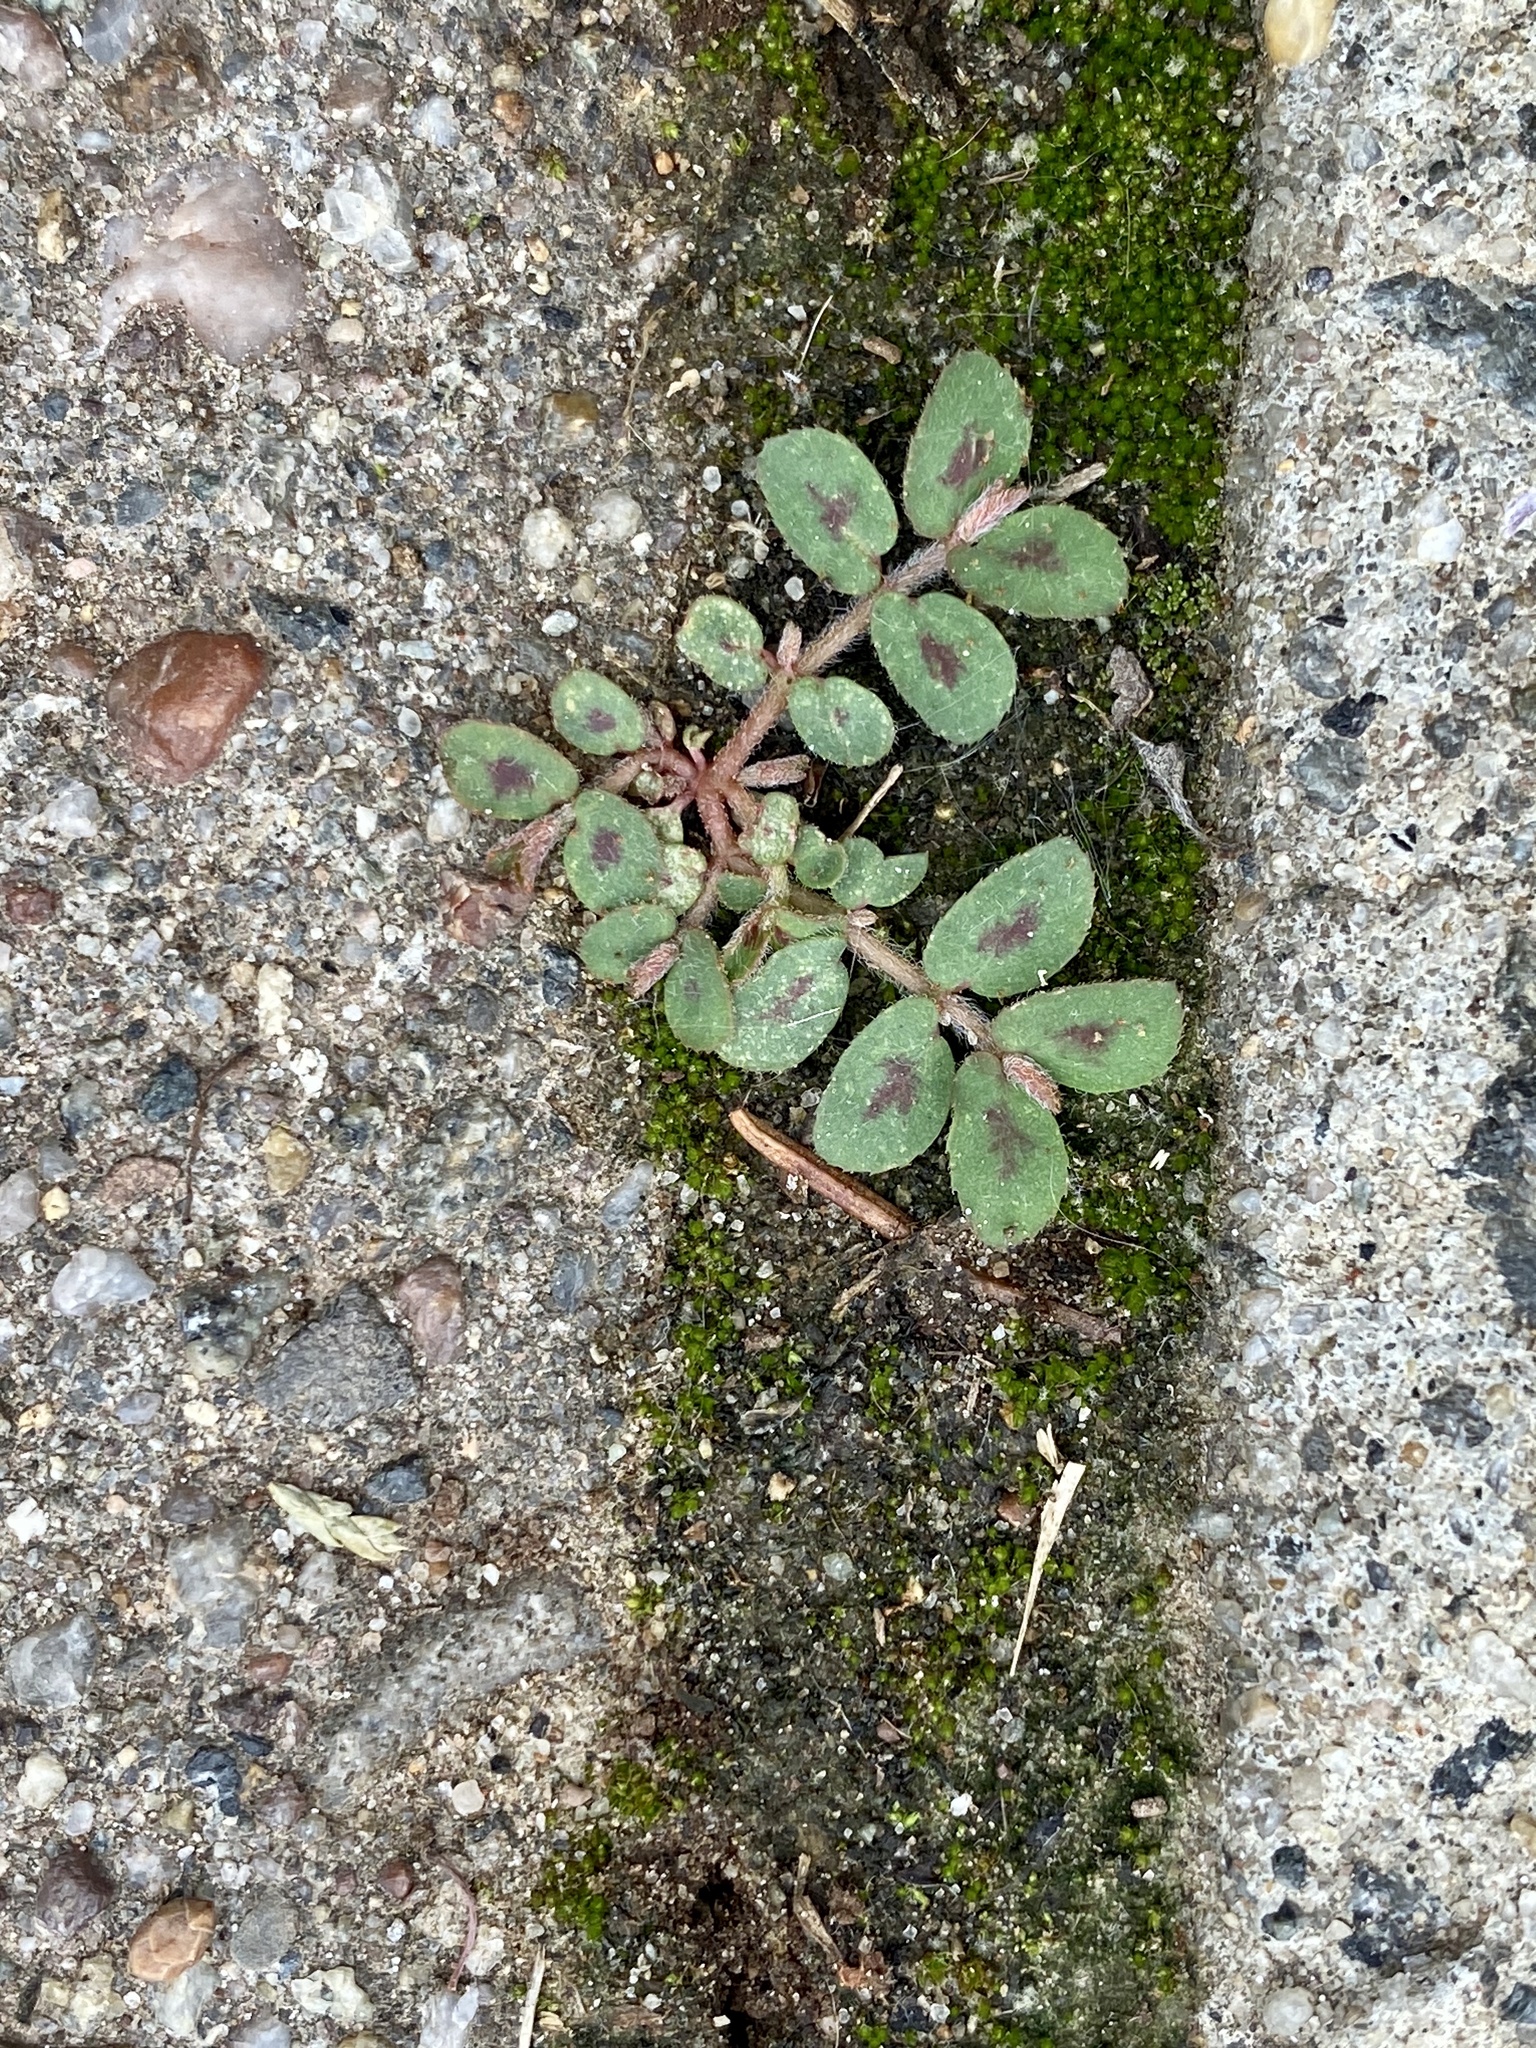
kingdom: Plantae
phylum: Tracheophyta
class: Magnoliopsida
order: Malpighiales
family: Euphorbiaceae
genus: Euphorbia
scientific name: Euphorbia maculata
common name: Spotted spurge
